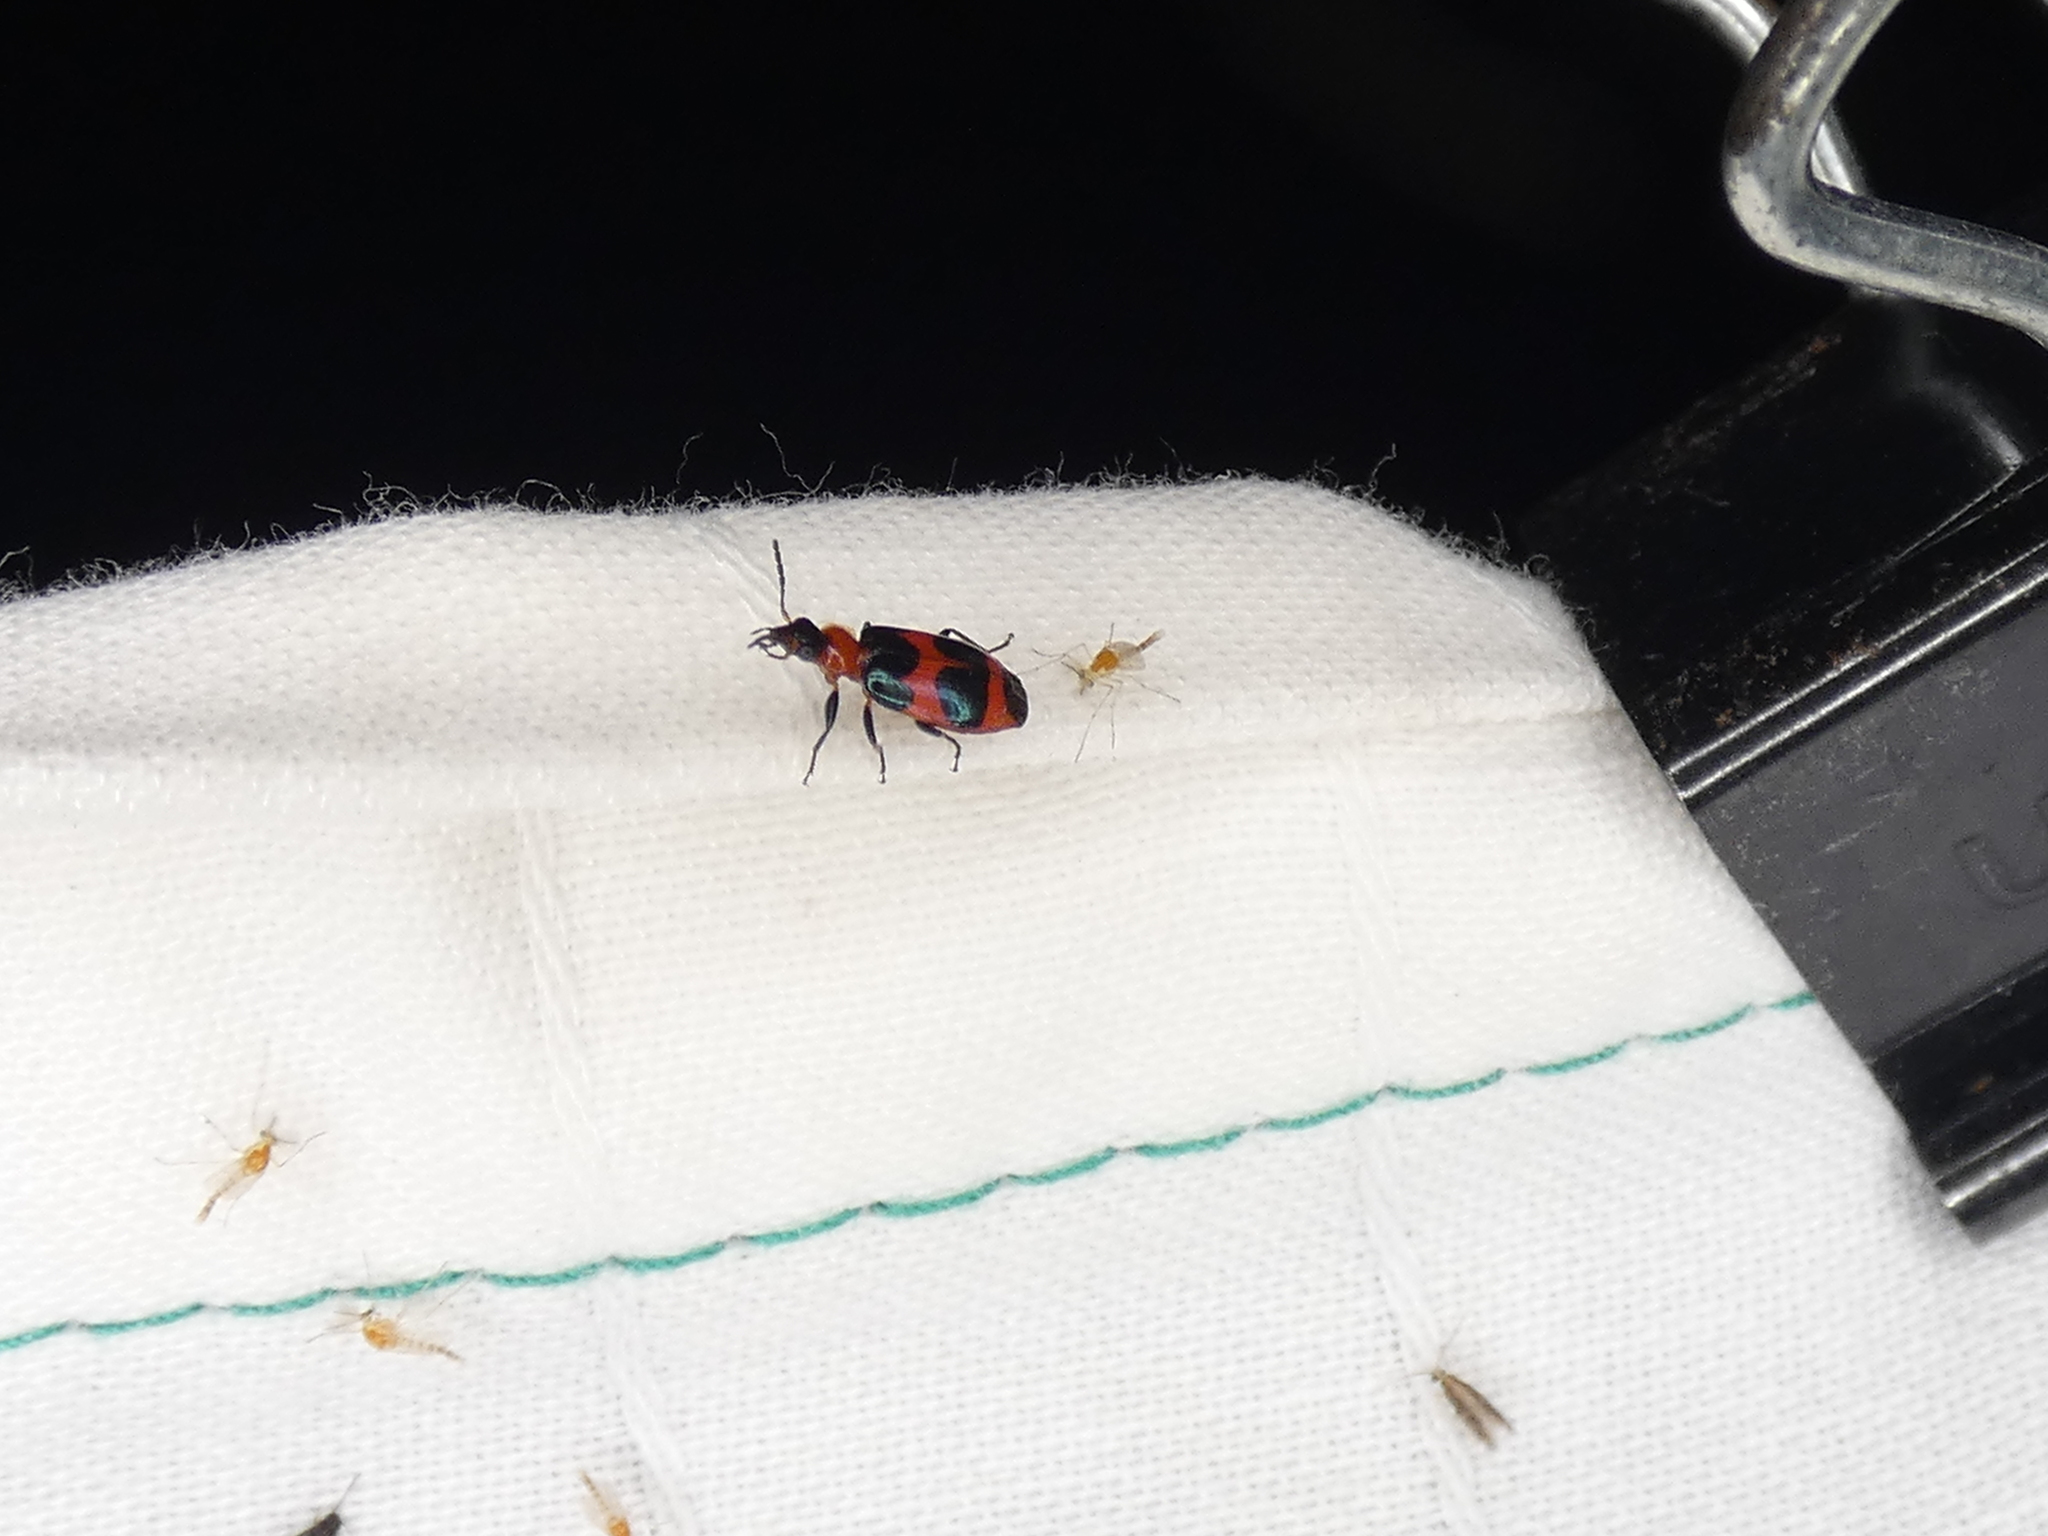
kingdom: Animalia
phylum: Arthropoda
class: Insecta
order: Coleoptera
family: Carabidae
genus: Lebia
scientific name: Lebia bitaeniata
